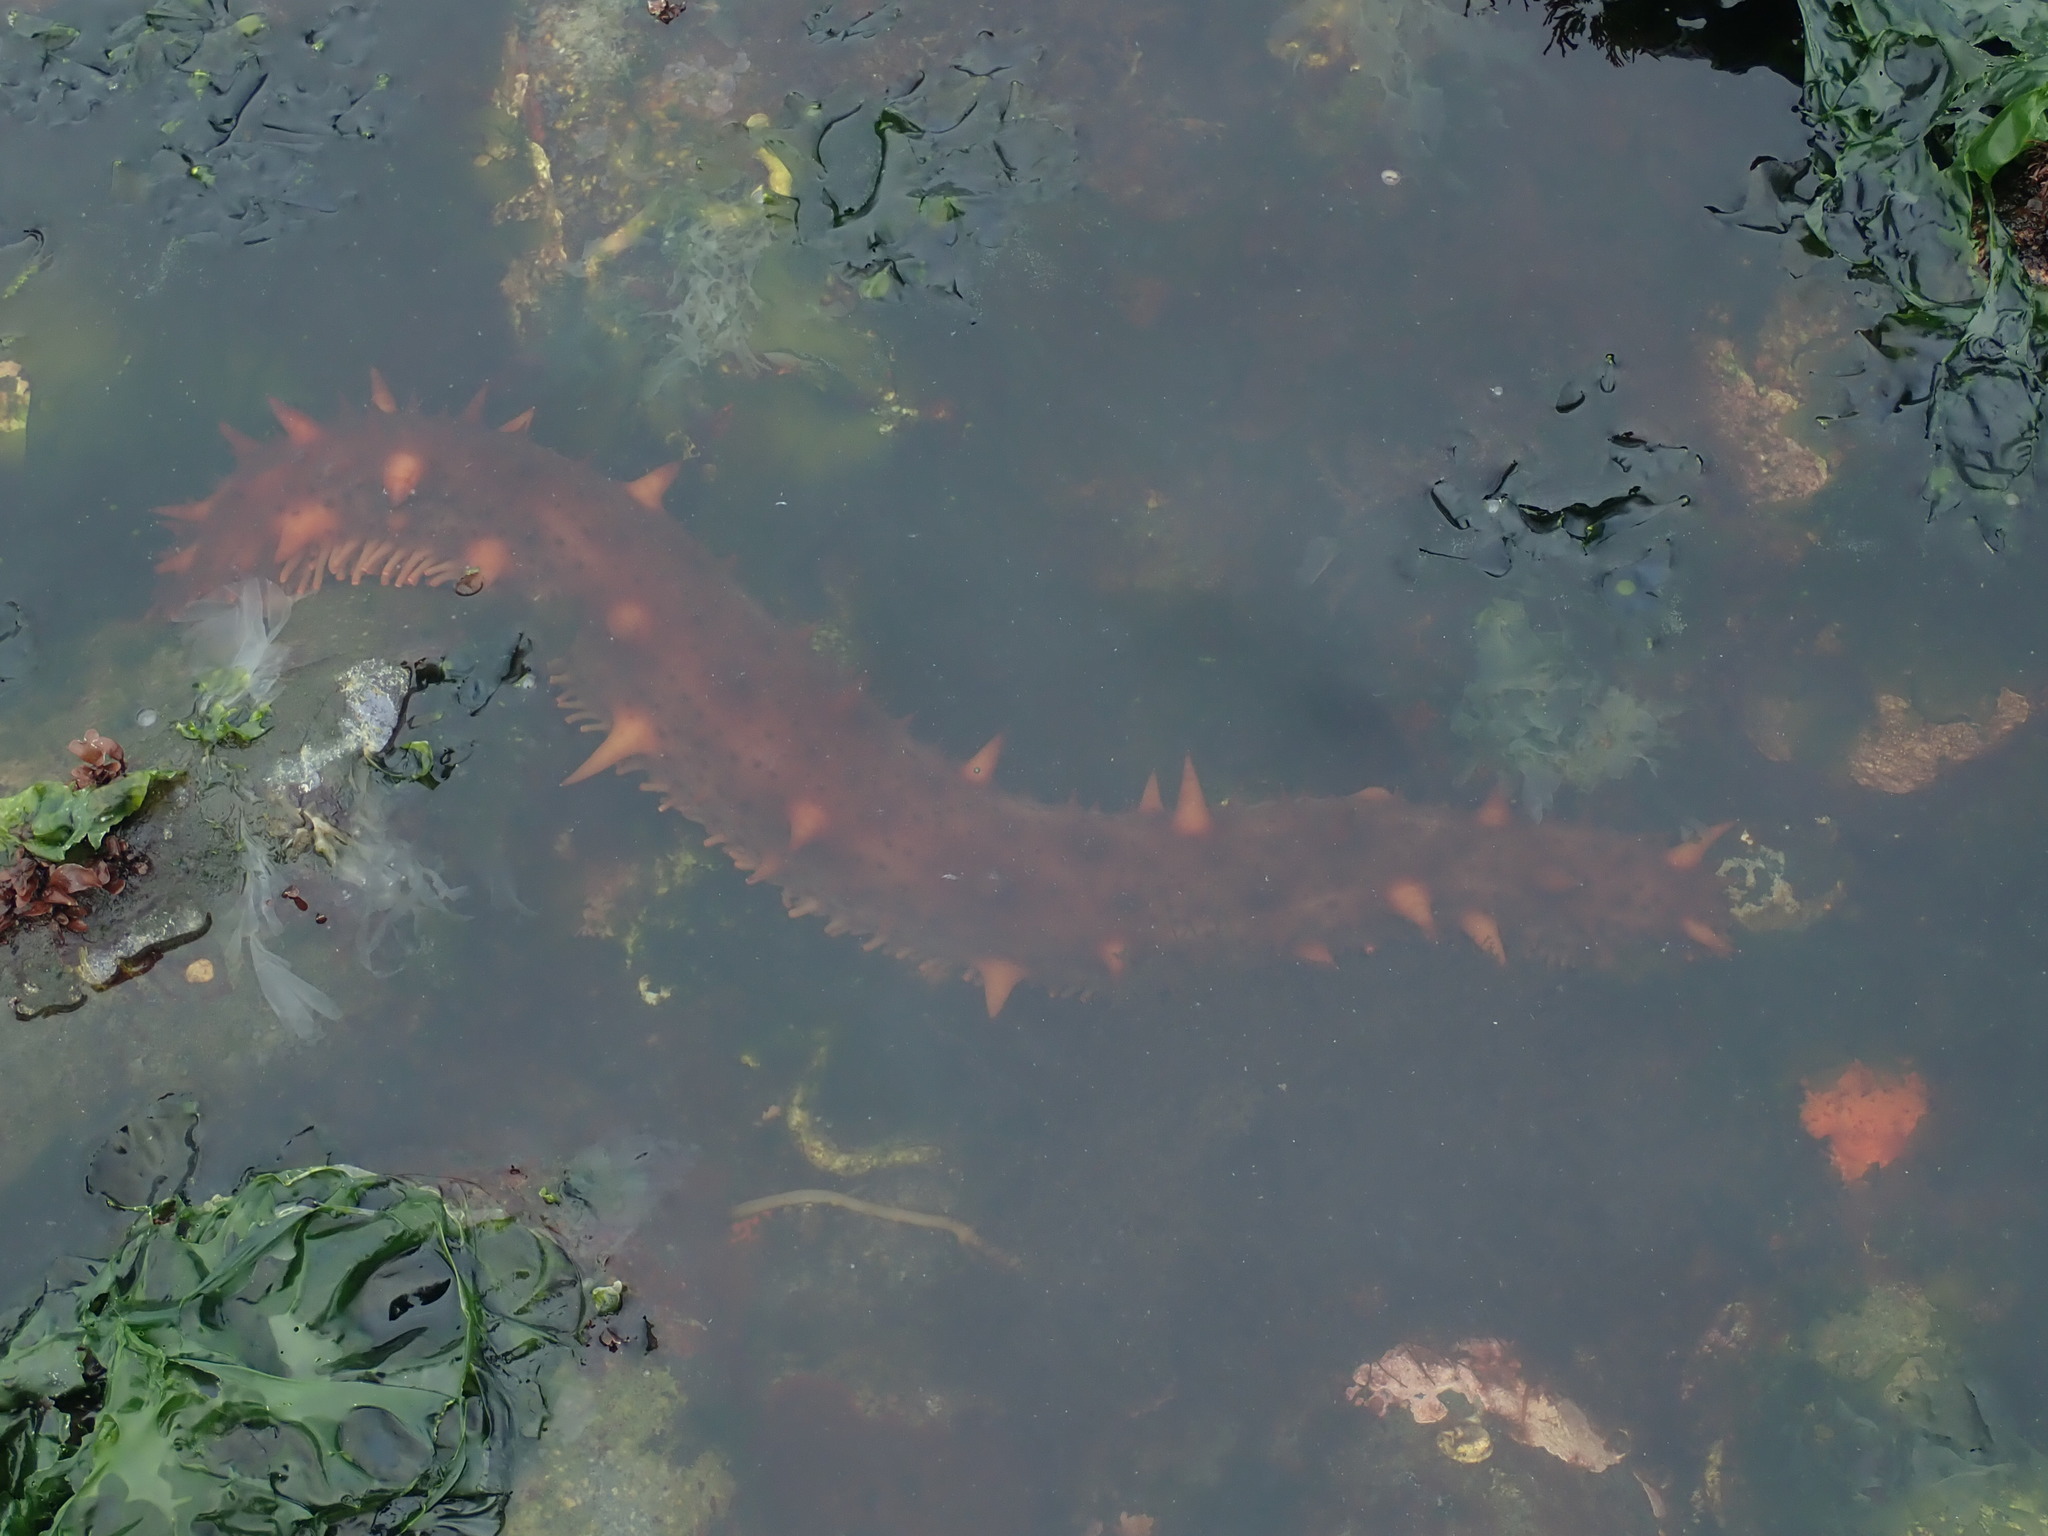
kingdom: Animalia
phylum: Echinodermata
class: Holothuroidea
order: Synallactida
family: Stichopodidae
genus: Apostichopus
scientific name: Apostichopus californicus
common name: California sea cucumber
